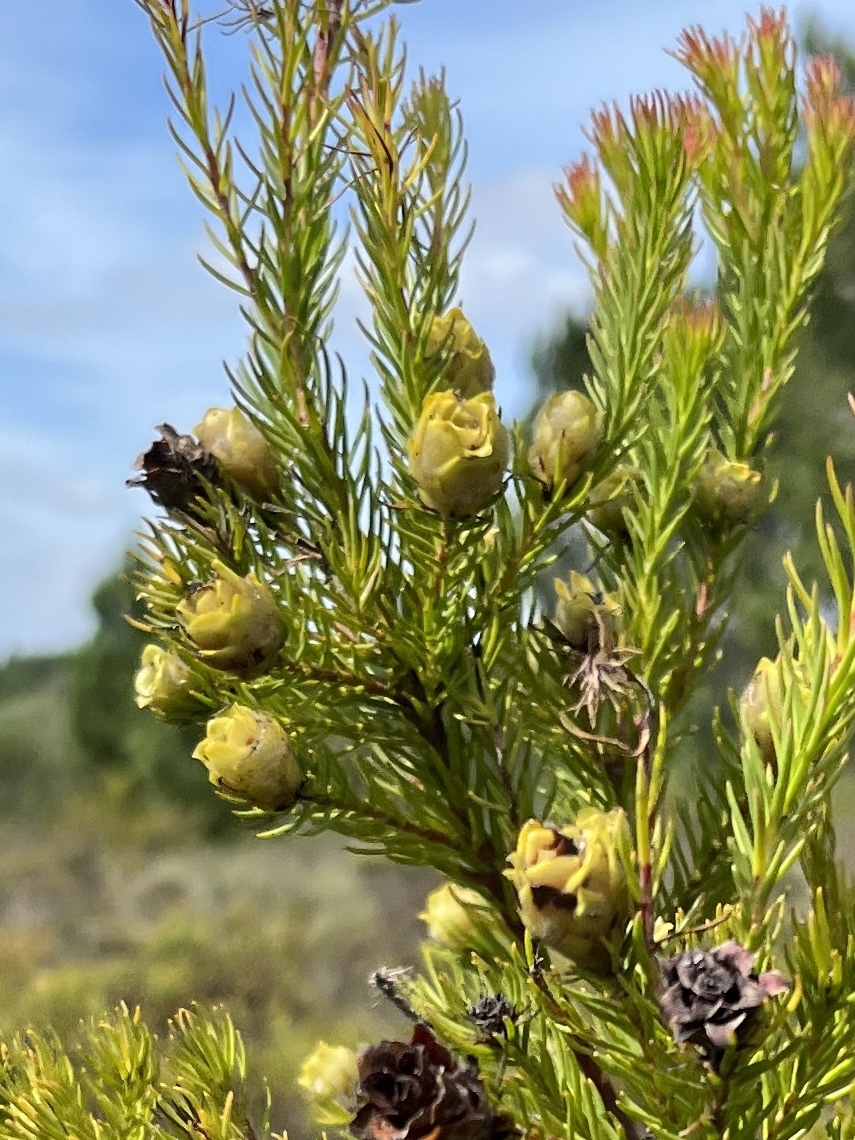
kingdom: Plantae
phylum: Tracheophyta
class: Magnoliopsida
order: Proteales
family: Proteaceae
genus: Leucadendron
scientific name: Leucadendron laxum
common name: Bredasdorp conebush
